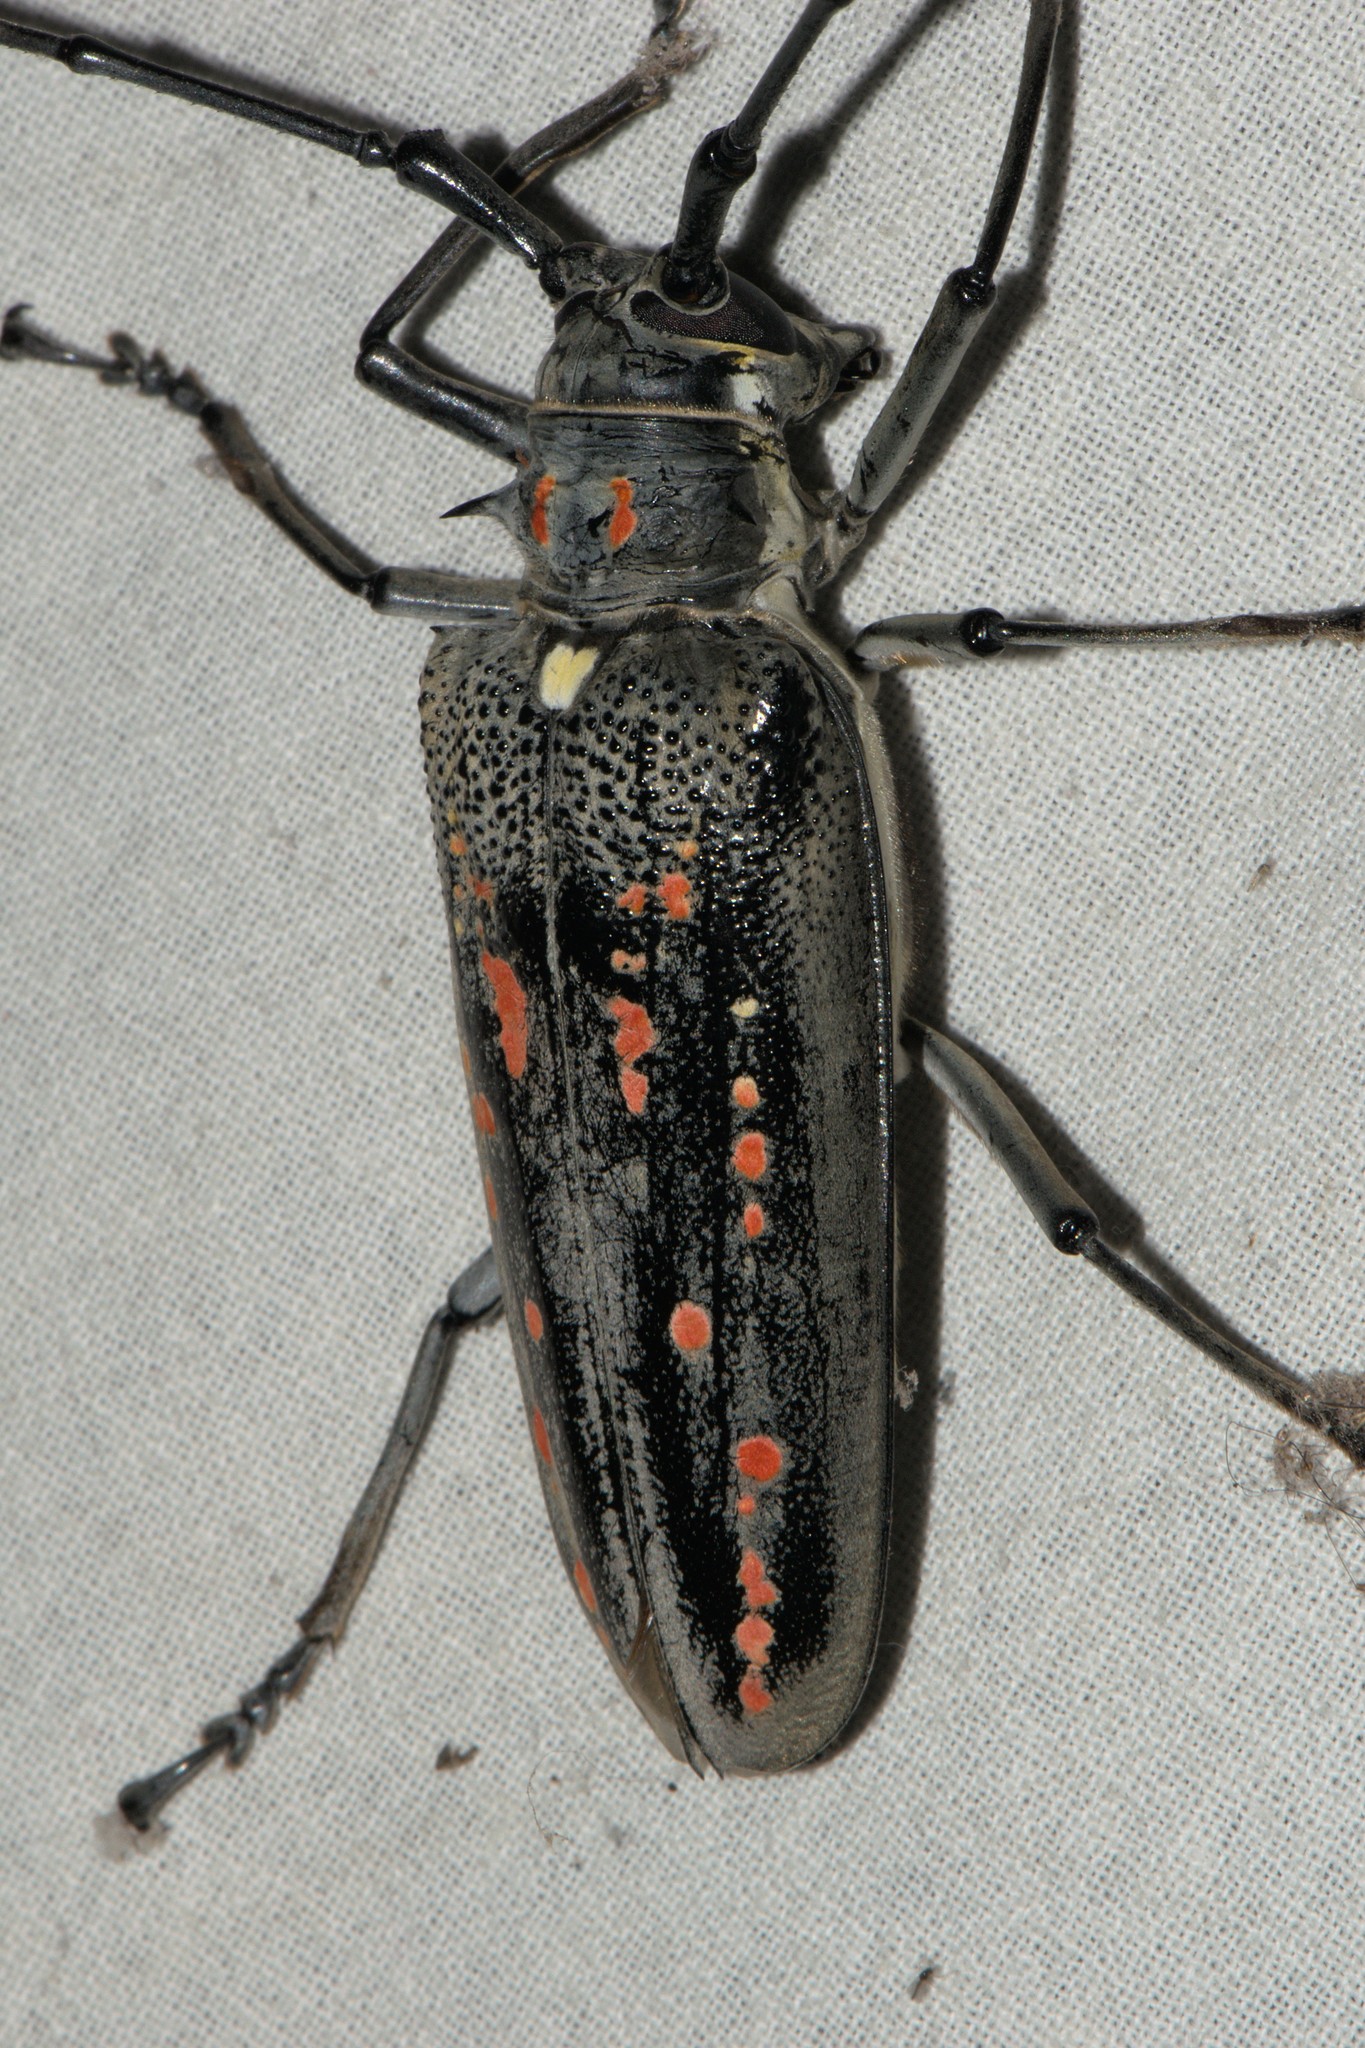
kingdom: Animalia
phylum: Arthropoda
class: Insecta
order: Coleoptera
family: Cerambycidae
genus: Batocera
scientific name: Batocera horsfieldi
